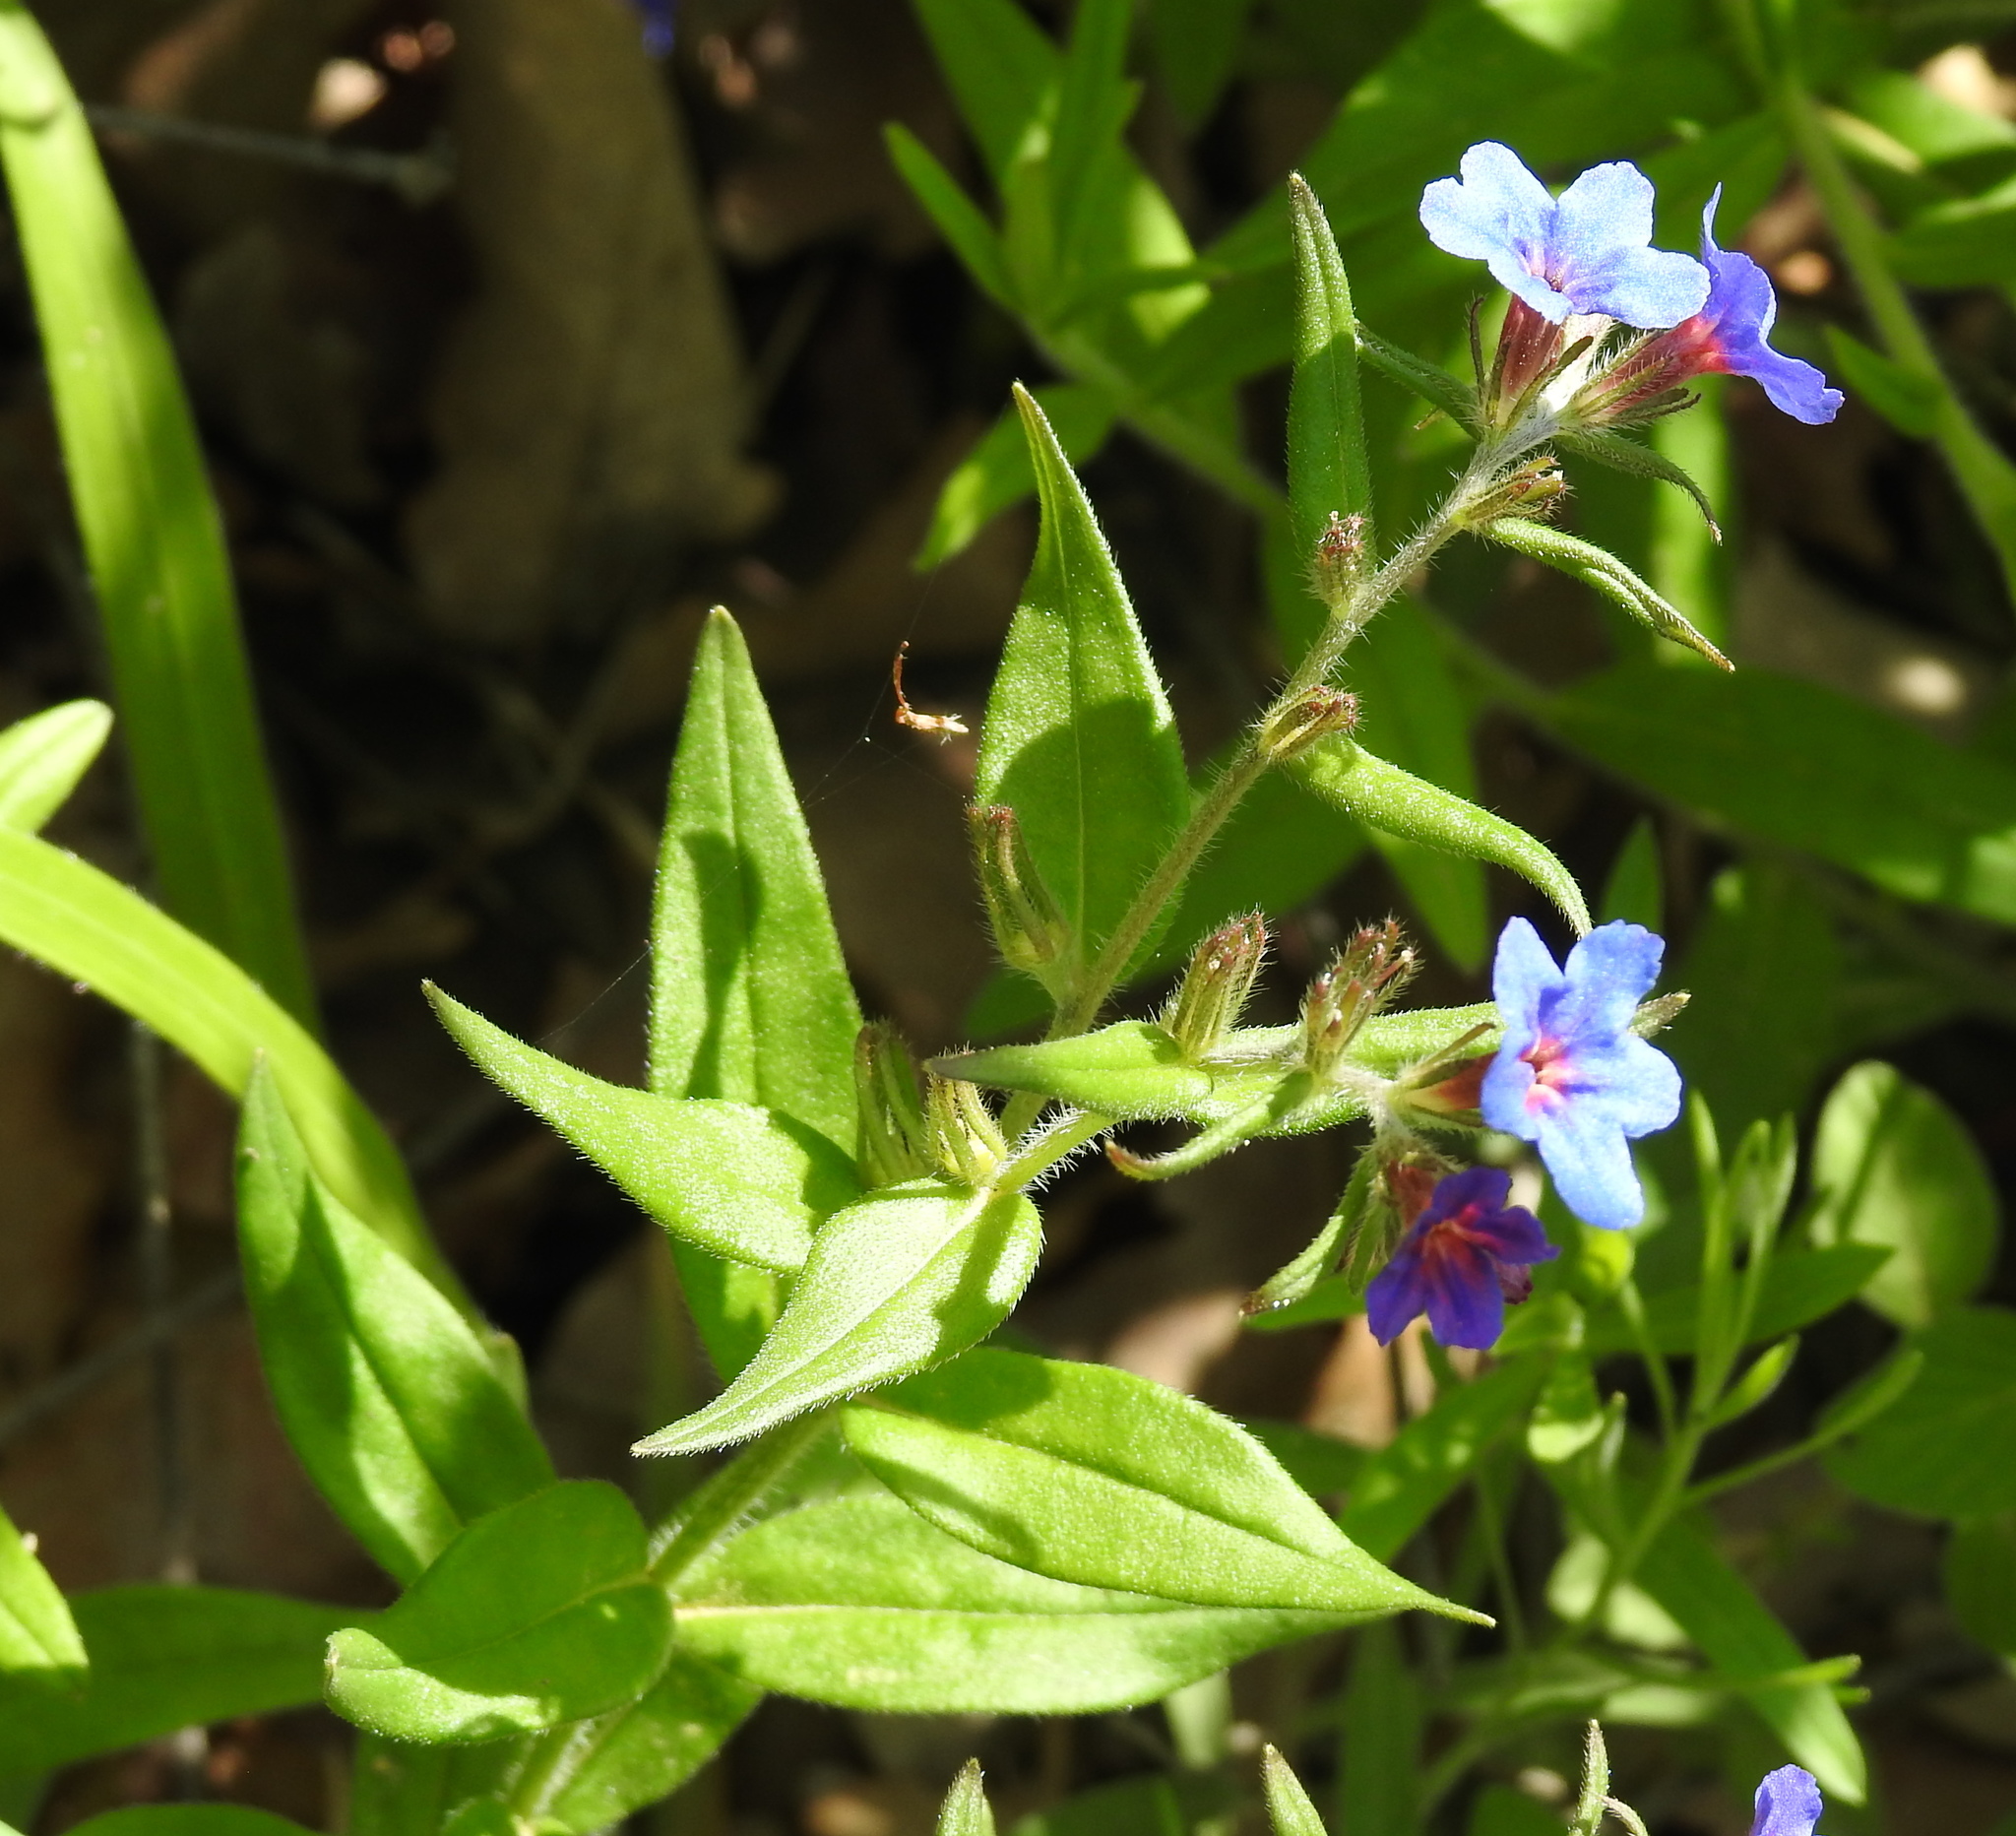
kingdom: Plantae
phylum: Tracheophyta
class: Magnoliopsida
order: Boraginales
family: Boraginaceae
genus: Aegonychon
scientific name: Aegonychon purpurocaeruleum
